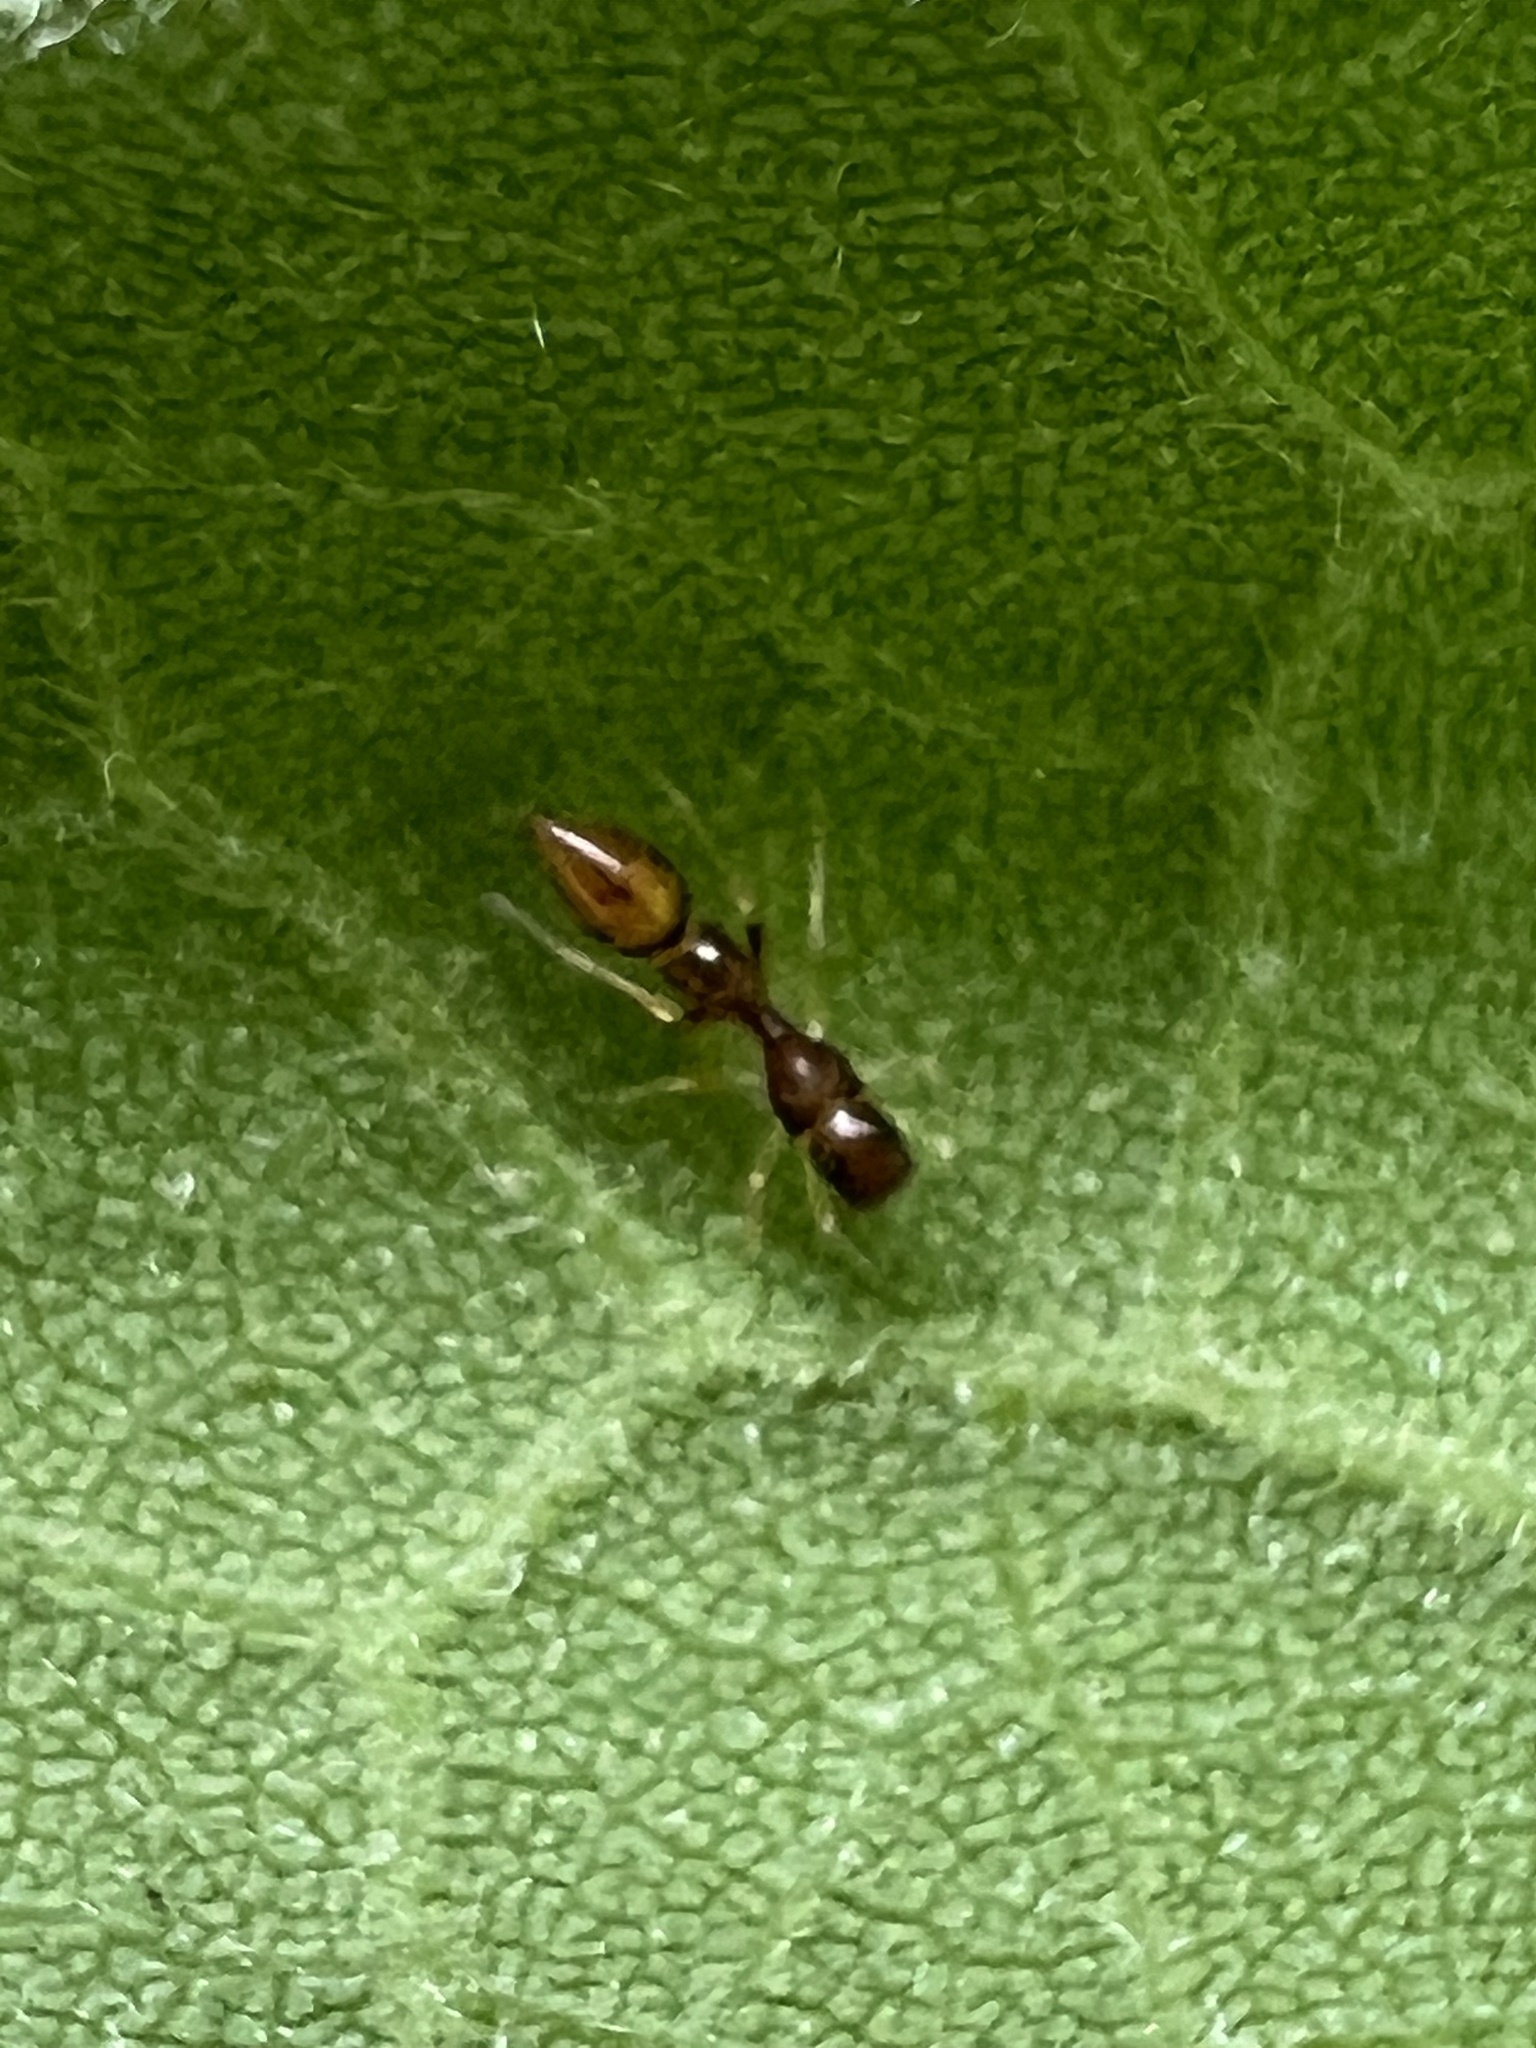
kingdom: Animalia
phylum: Arthropoda
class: Arachnida
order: Araneae
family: Salticidae
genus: Synemosyna
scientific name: Synemosyna formica
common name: Slender ant-mimic jumping spider
